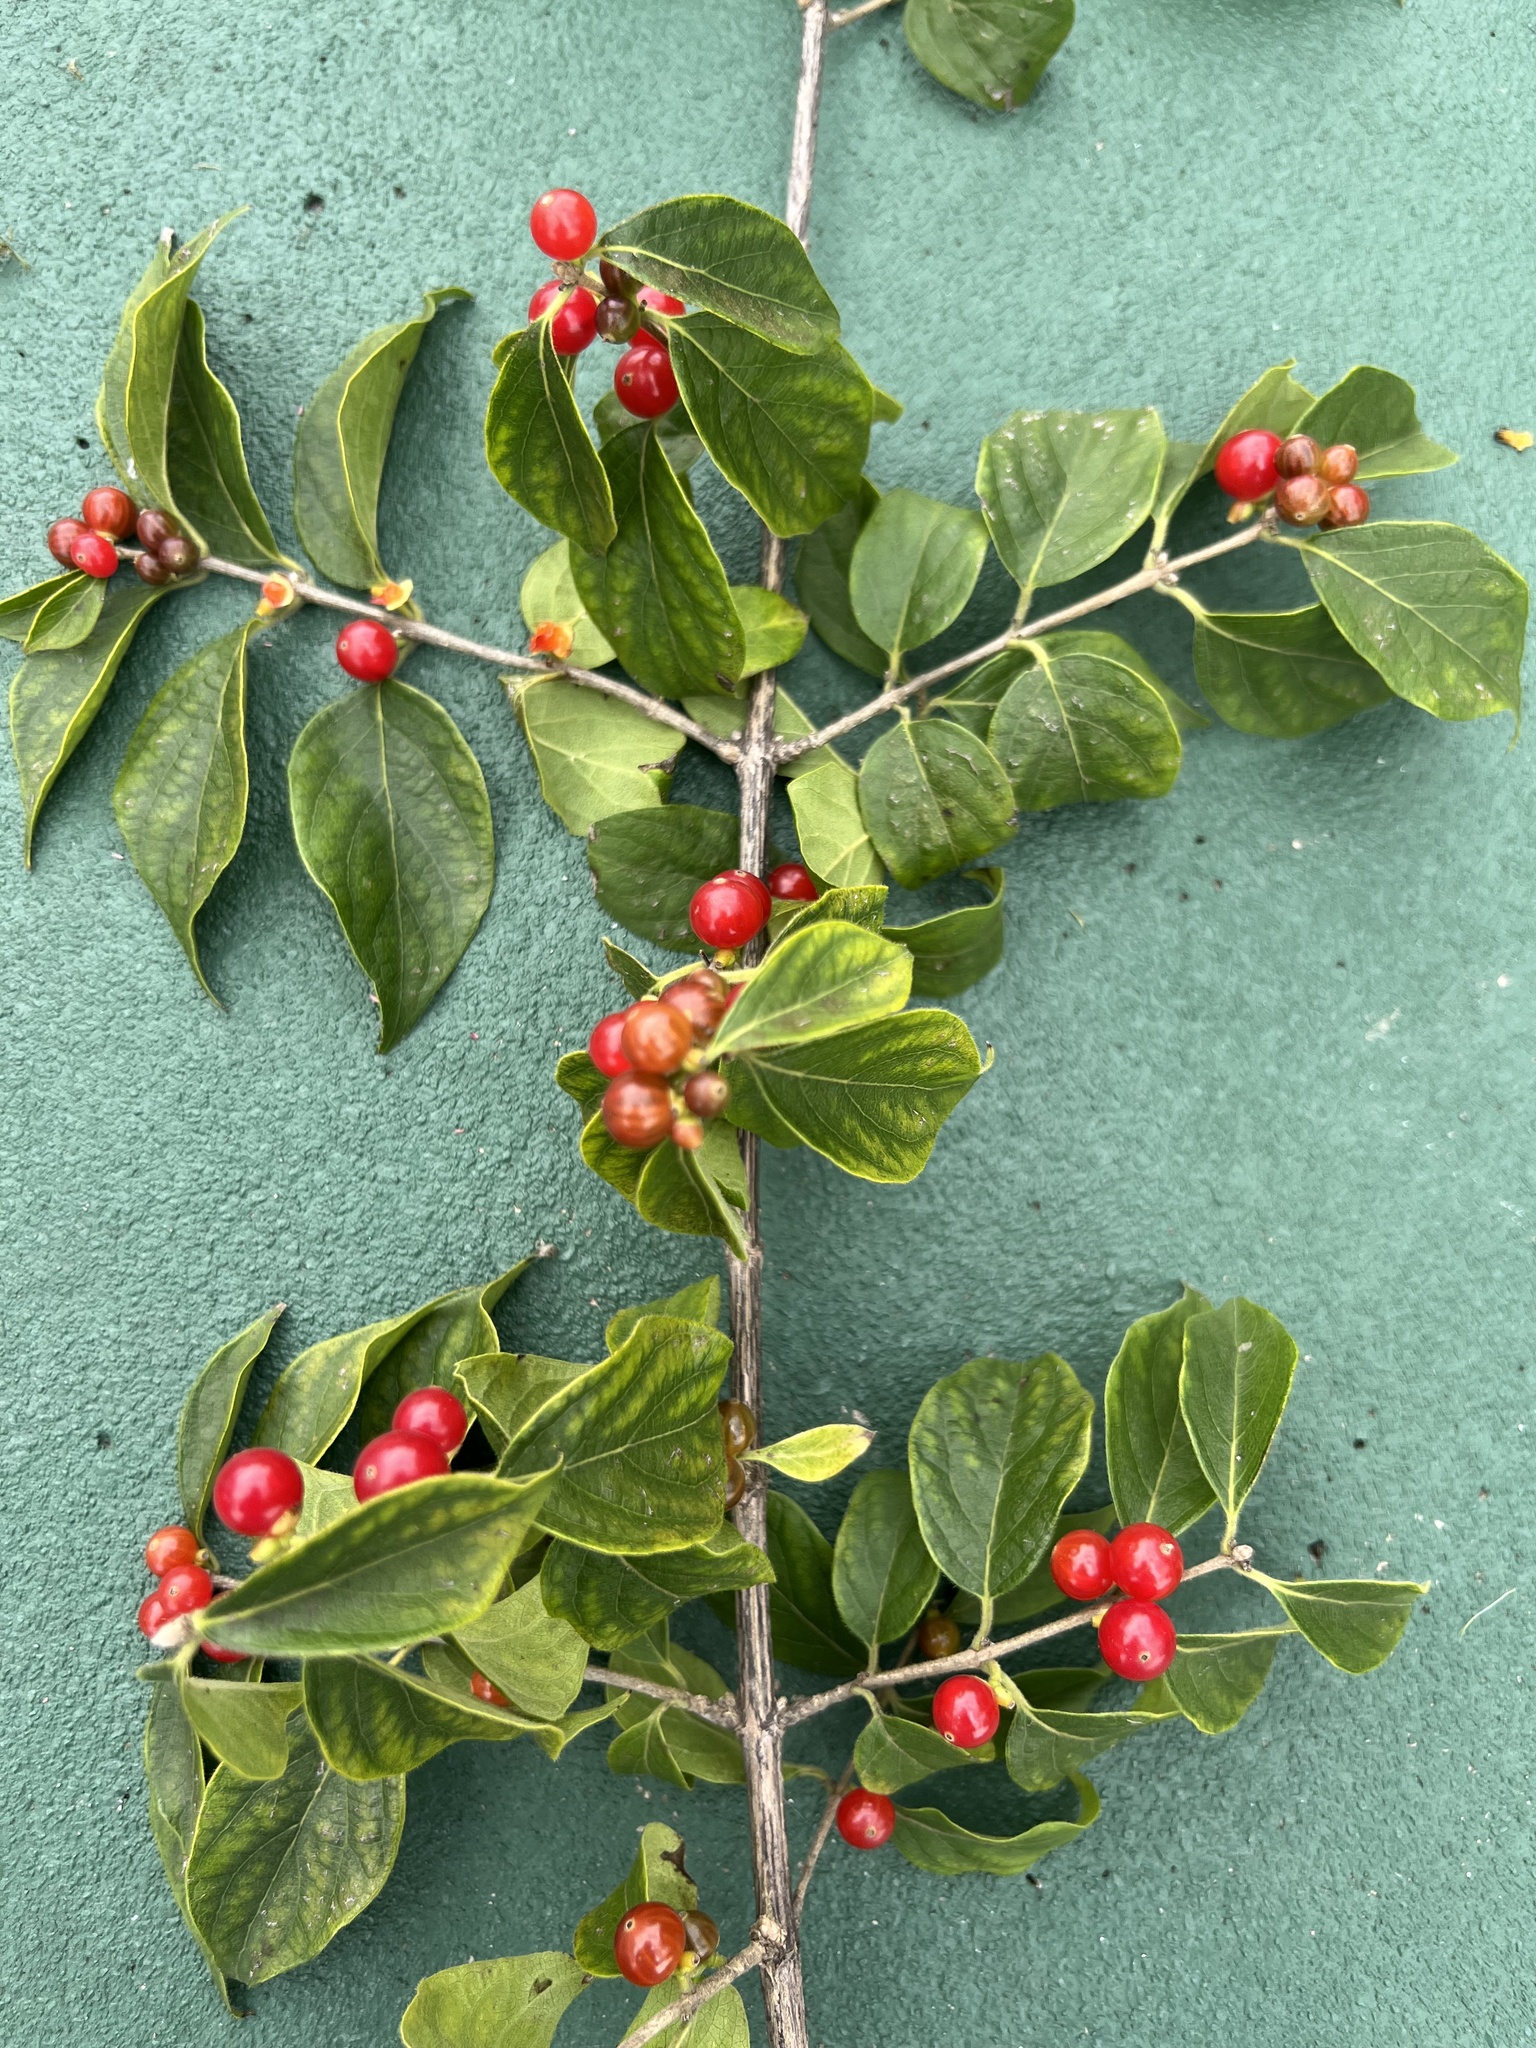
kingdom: Plantae
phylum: Tracheophyta
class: Magnoliopsida
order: Dipsacales
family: Caprifoliaceae
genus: Lonicera
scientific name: Lonicera maackii
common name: Amur honeysuckle
